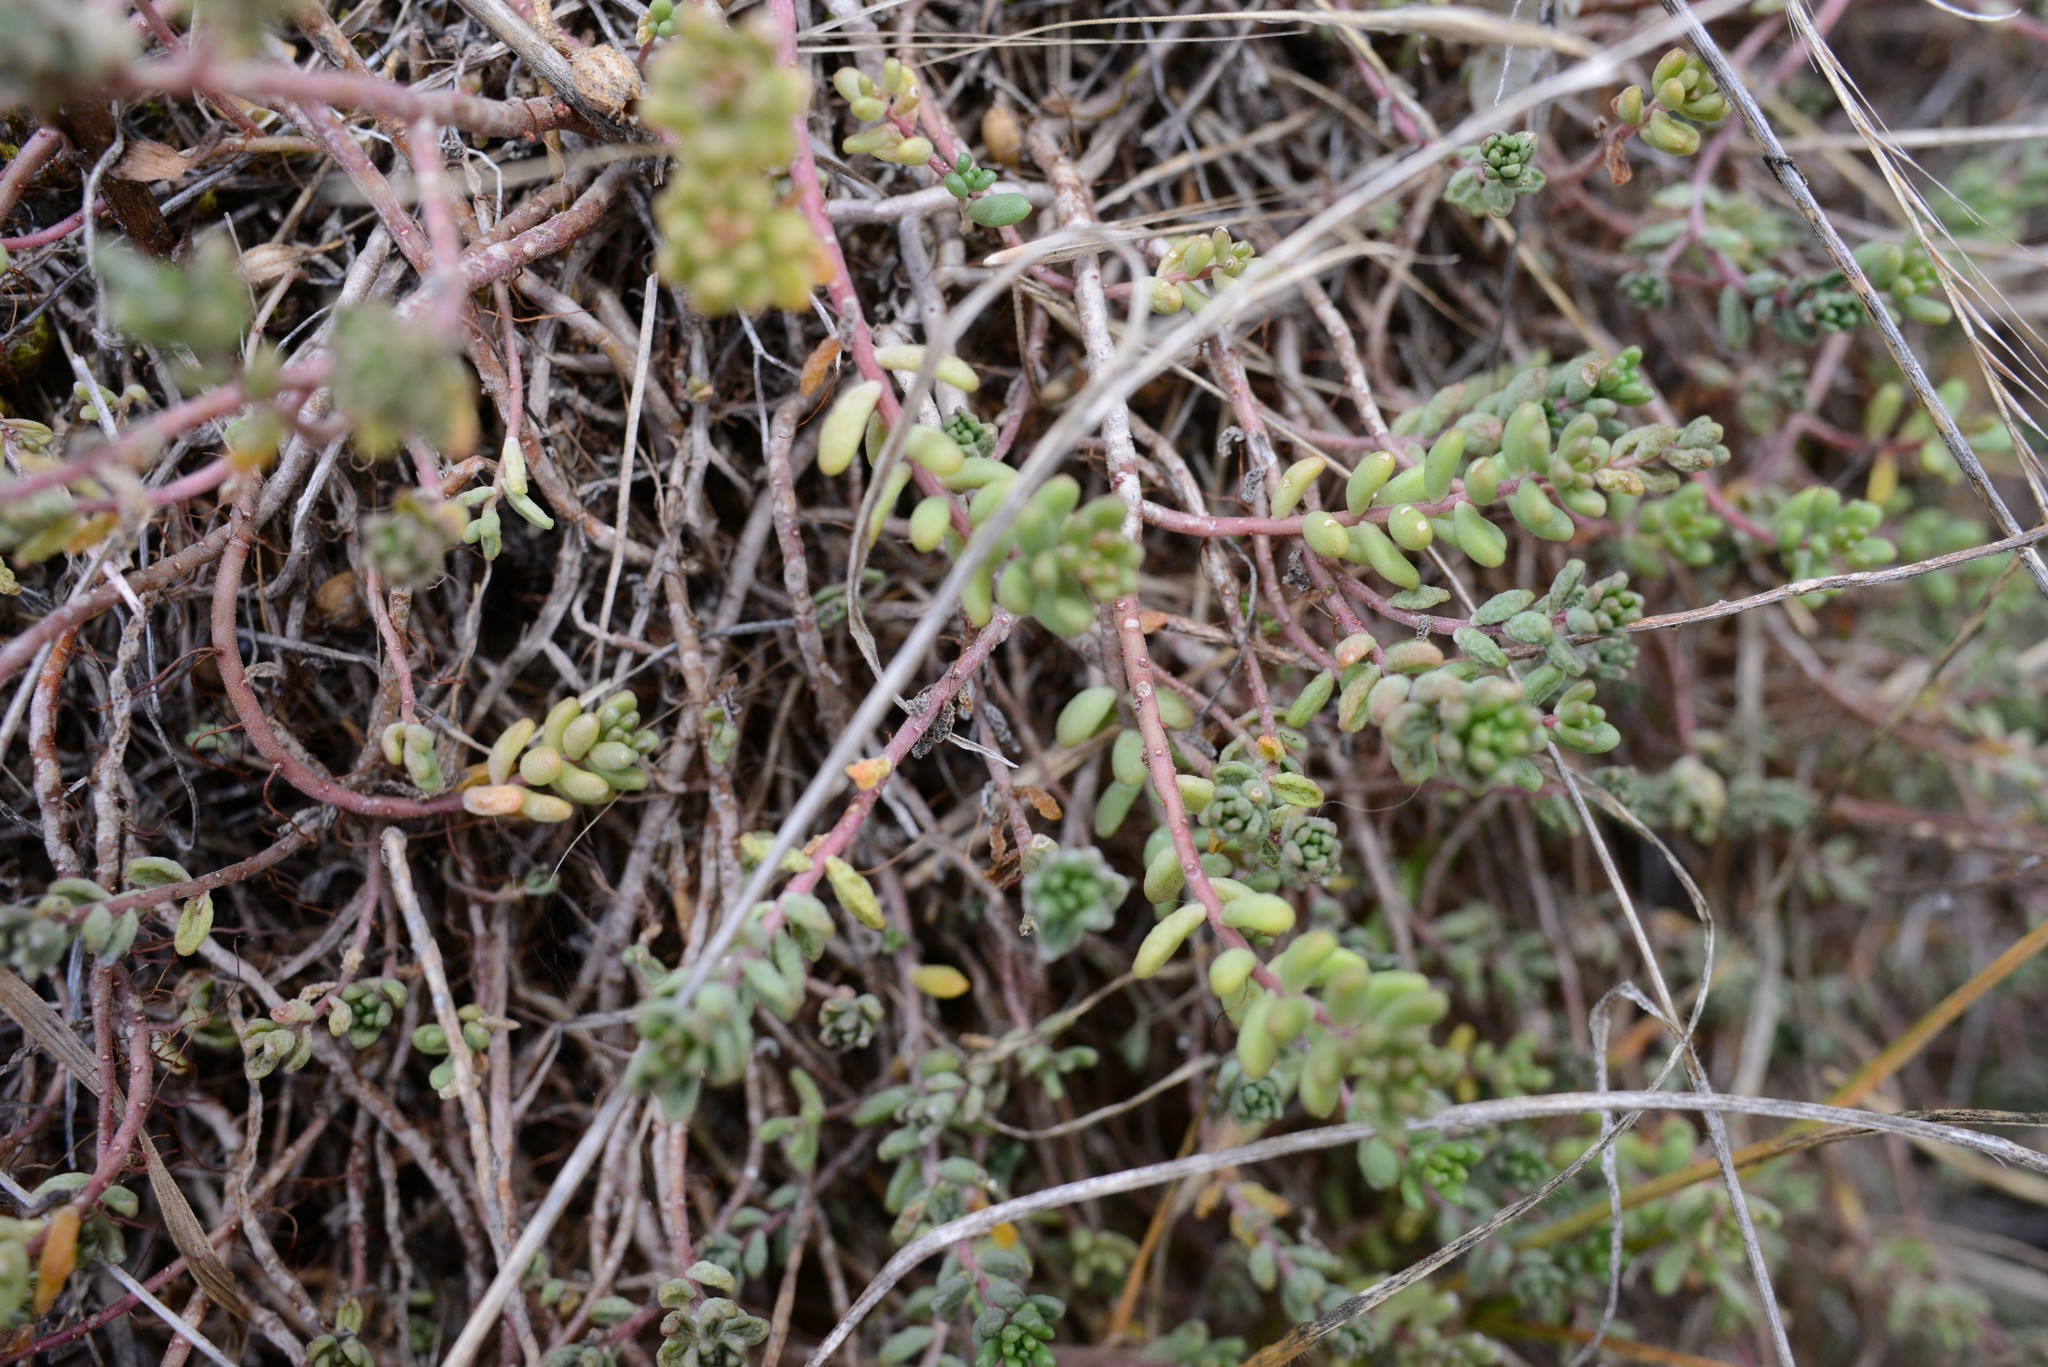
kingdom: Plantae
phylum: Tracheophyta
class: Magnoliopsida
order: Saxifragales
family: Crassulaceae
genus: Sedum
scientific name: Sedum album
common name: White stonecrop
